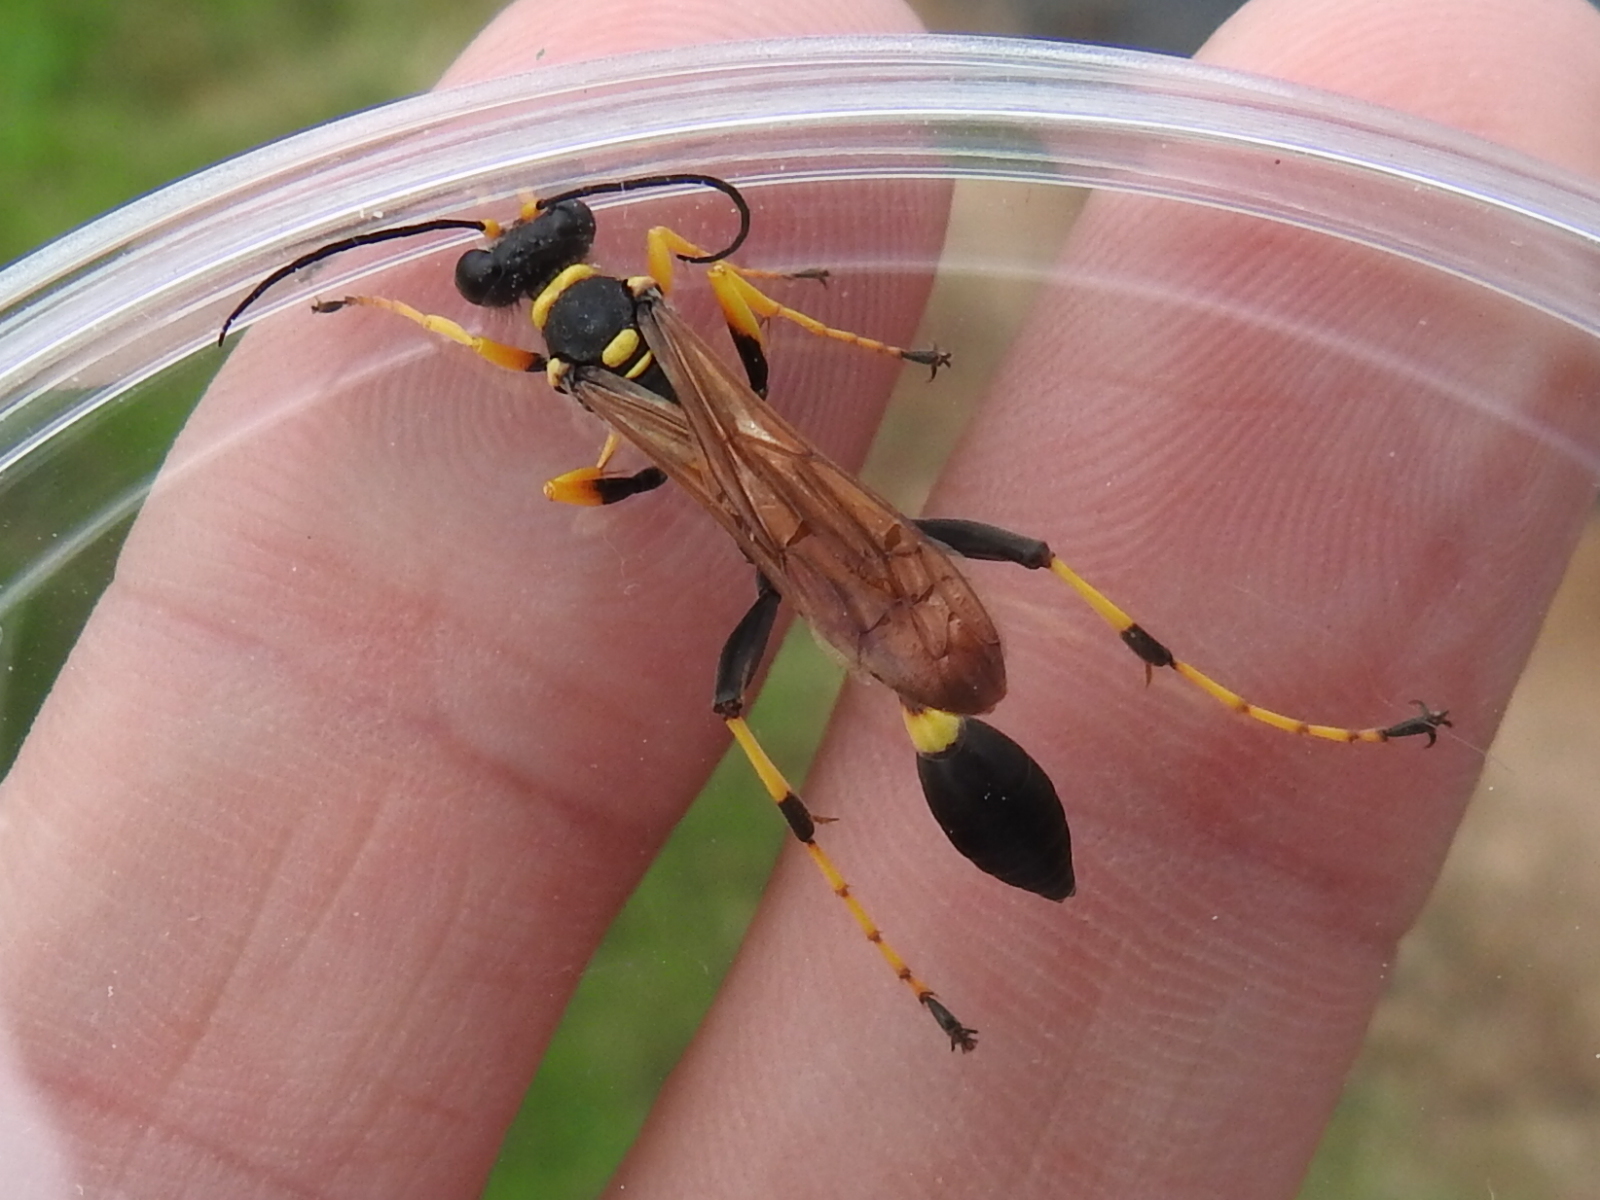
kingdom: Animalia
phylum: Arthropoda
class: Insecta
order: Hymenoptera
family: Sphecidae
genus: Sceliphron
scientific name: Sceliphron caementarium
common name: Mud dauber
